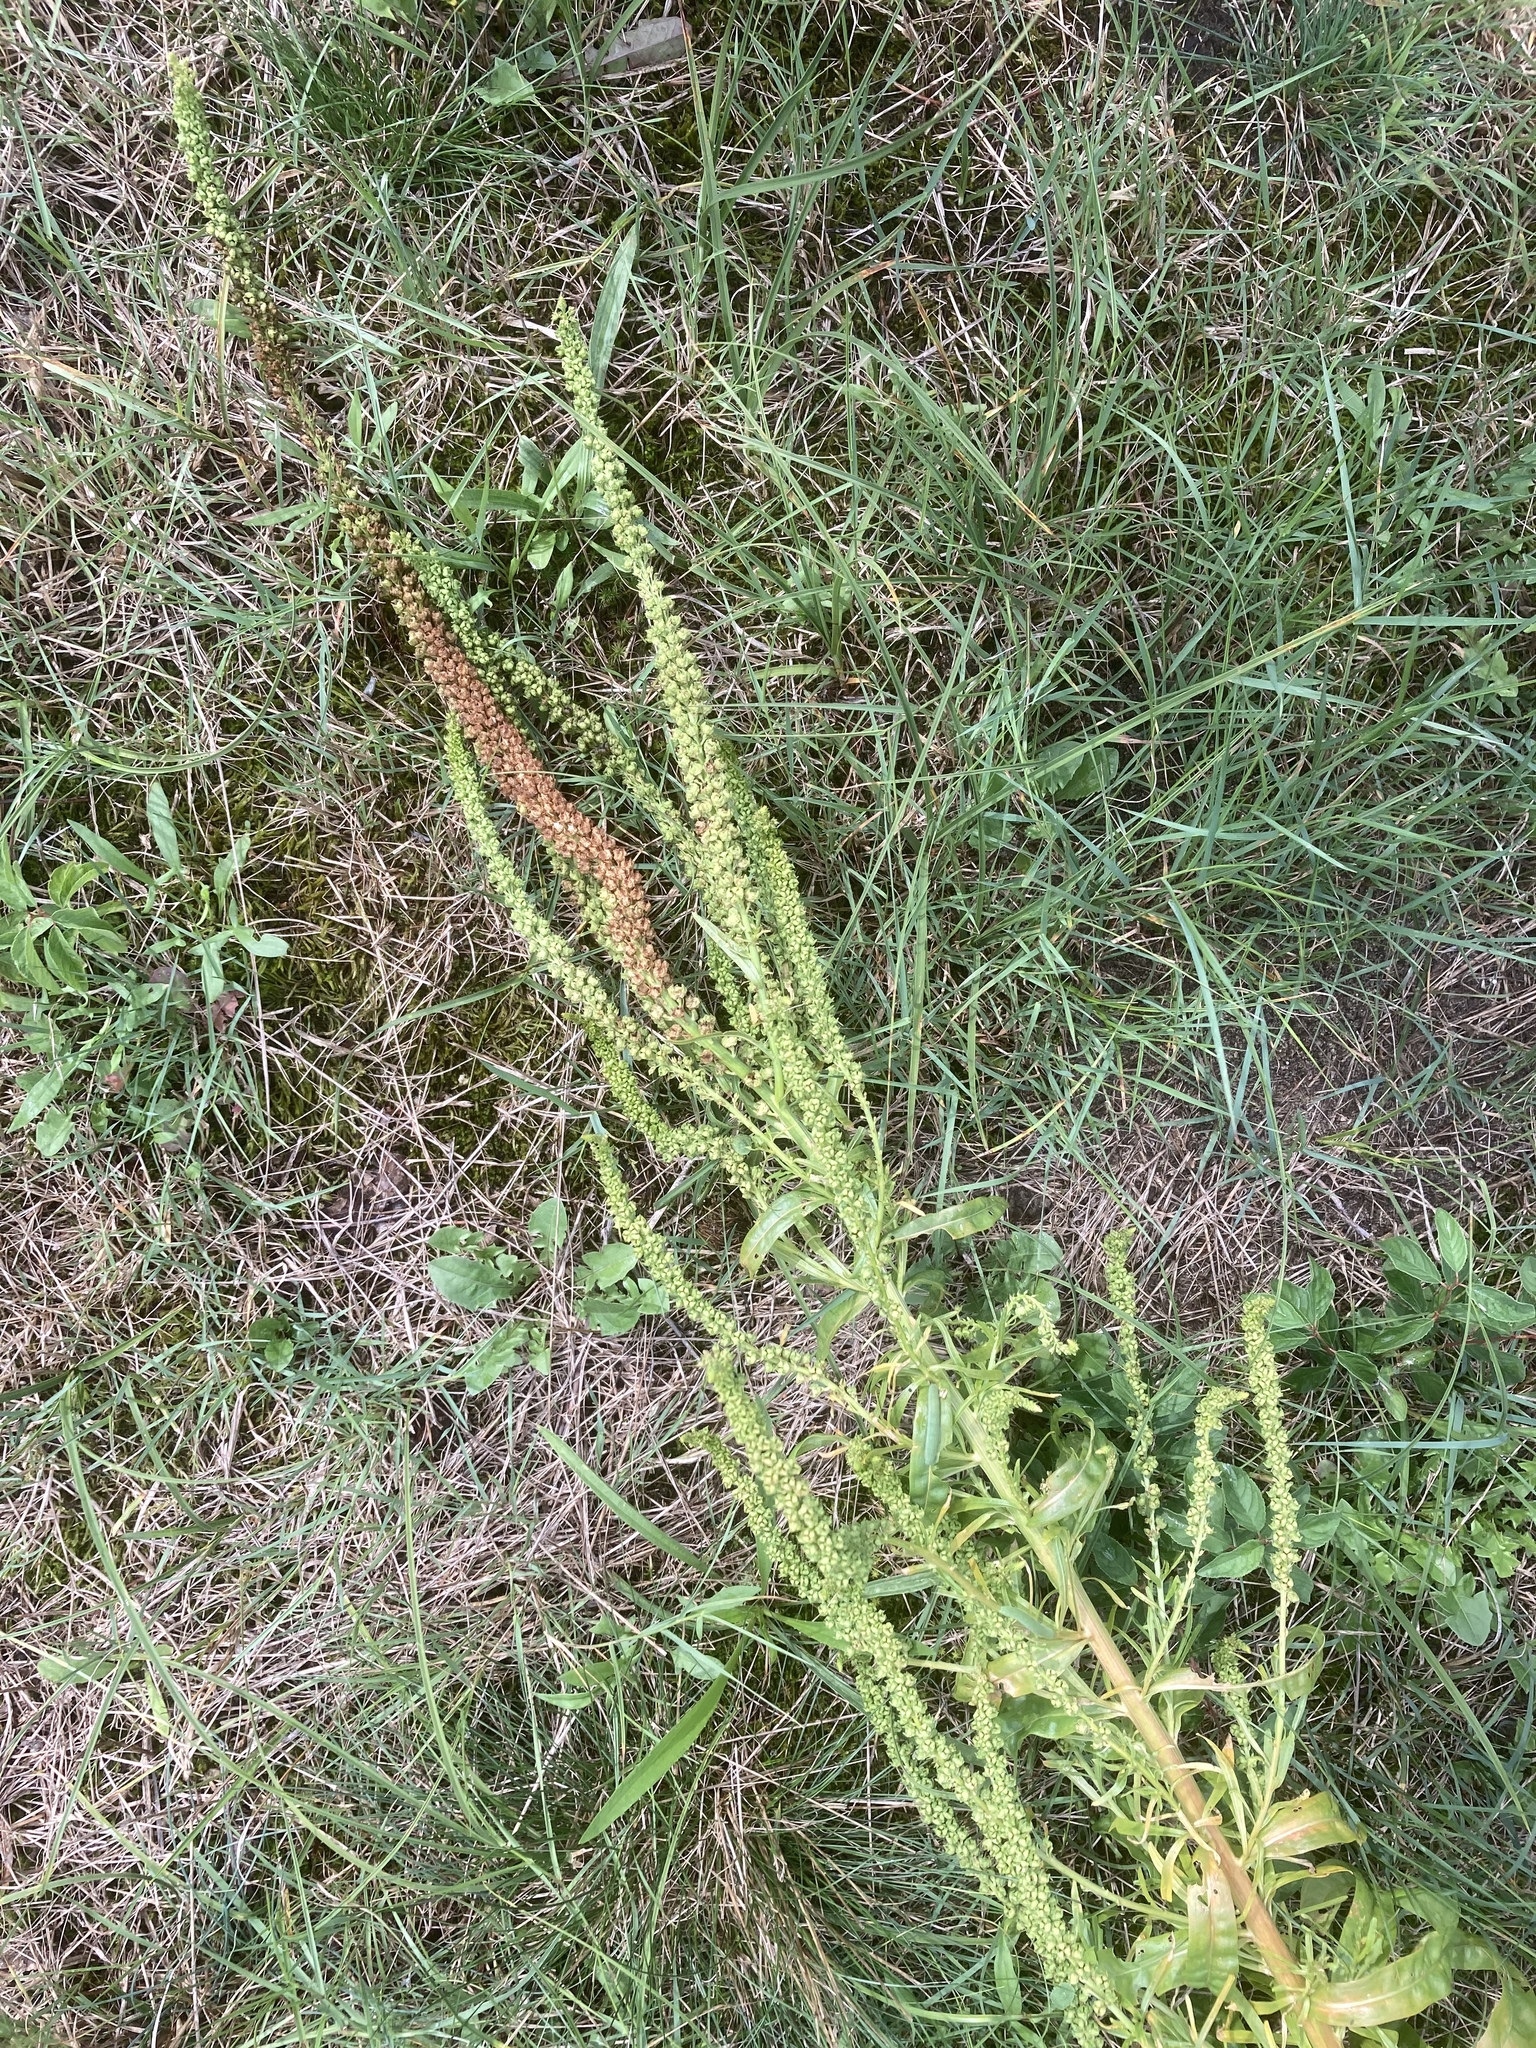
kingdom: Plantae
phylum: Tracheophyta
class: Magnoliopsida
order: Brassicales
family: Resedaceae
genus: Reseda
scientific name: Reseda luteola
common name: Weld
